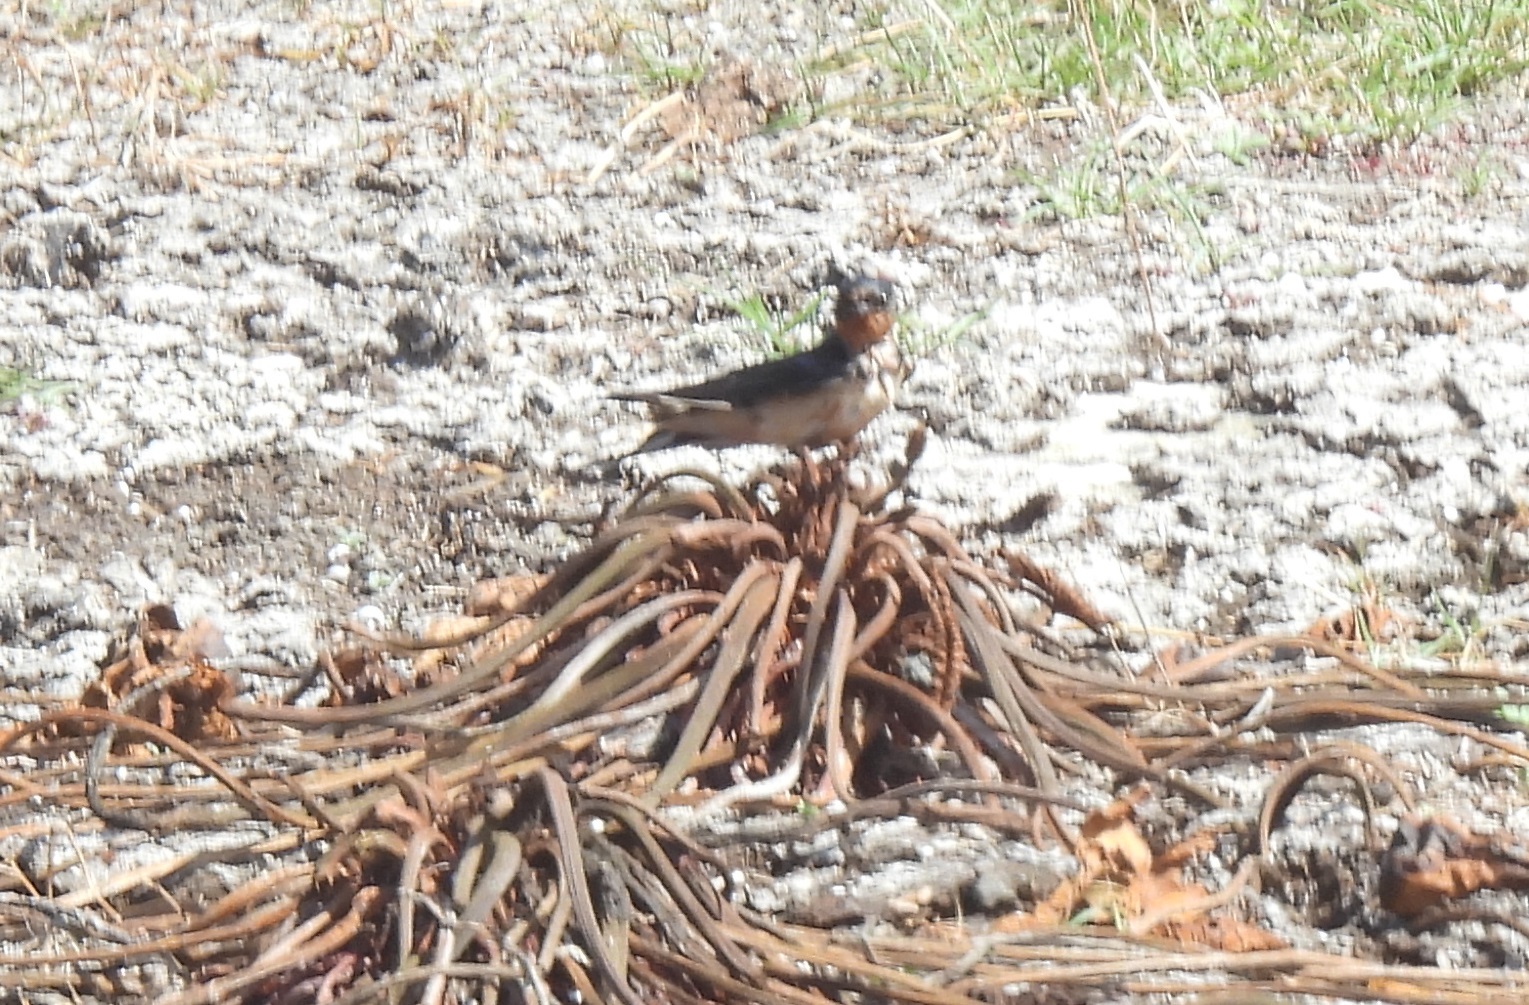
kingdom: Animalia
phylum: Chordata
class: Aves
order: Passeriformes
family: Hirundinidae
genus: Hirundo
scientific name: Hirundo rustica
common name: Barn swallow
